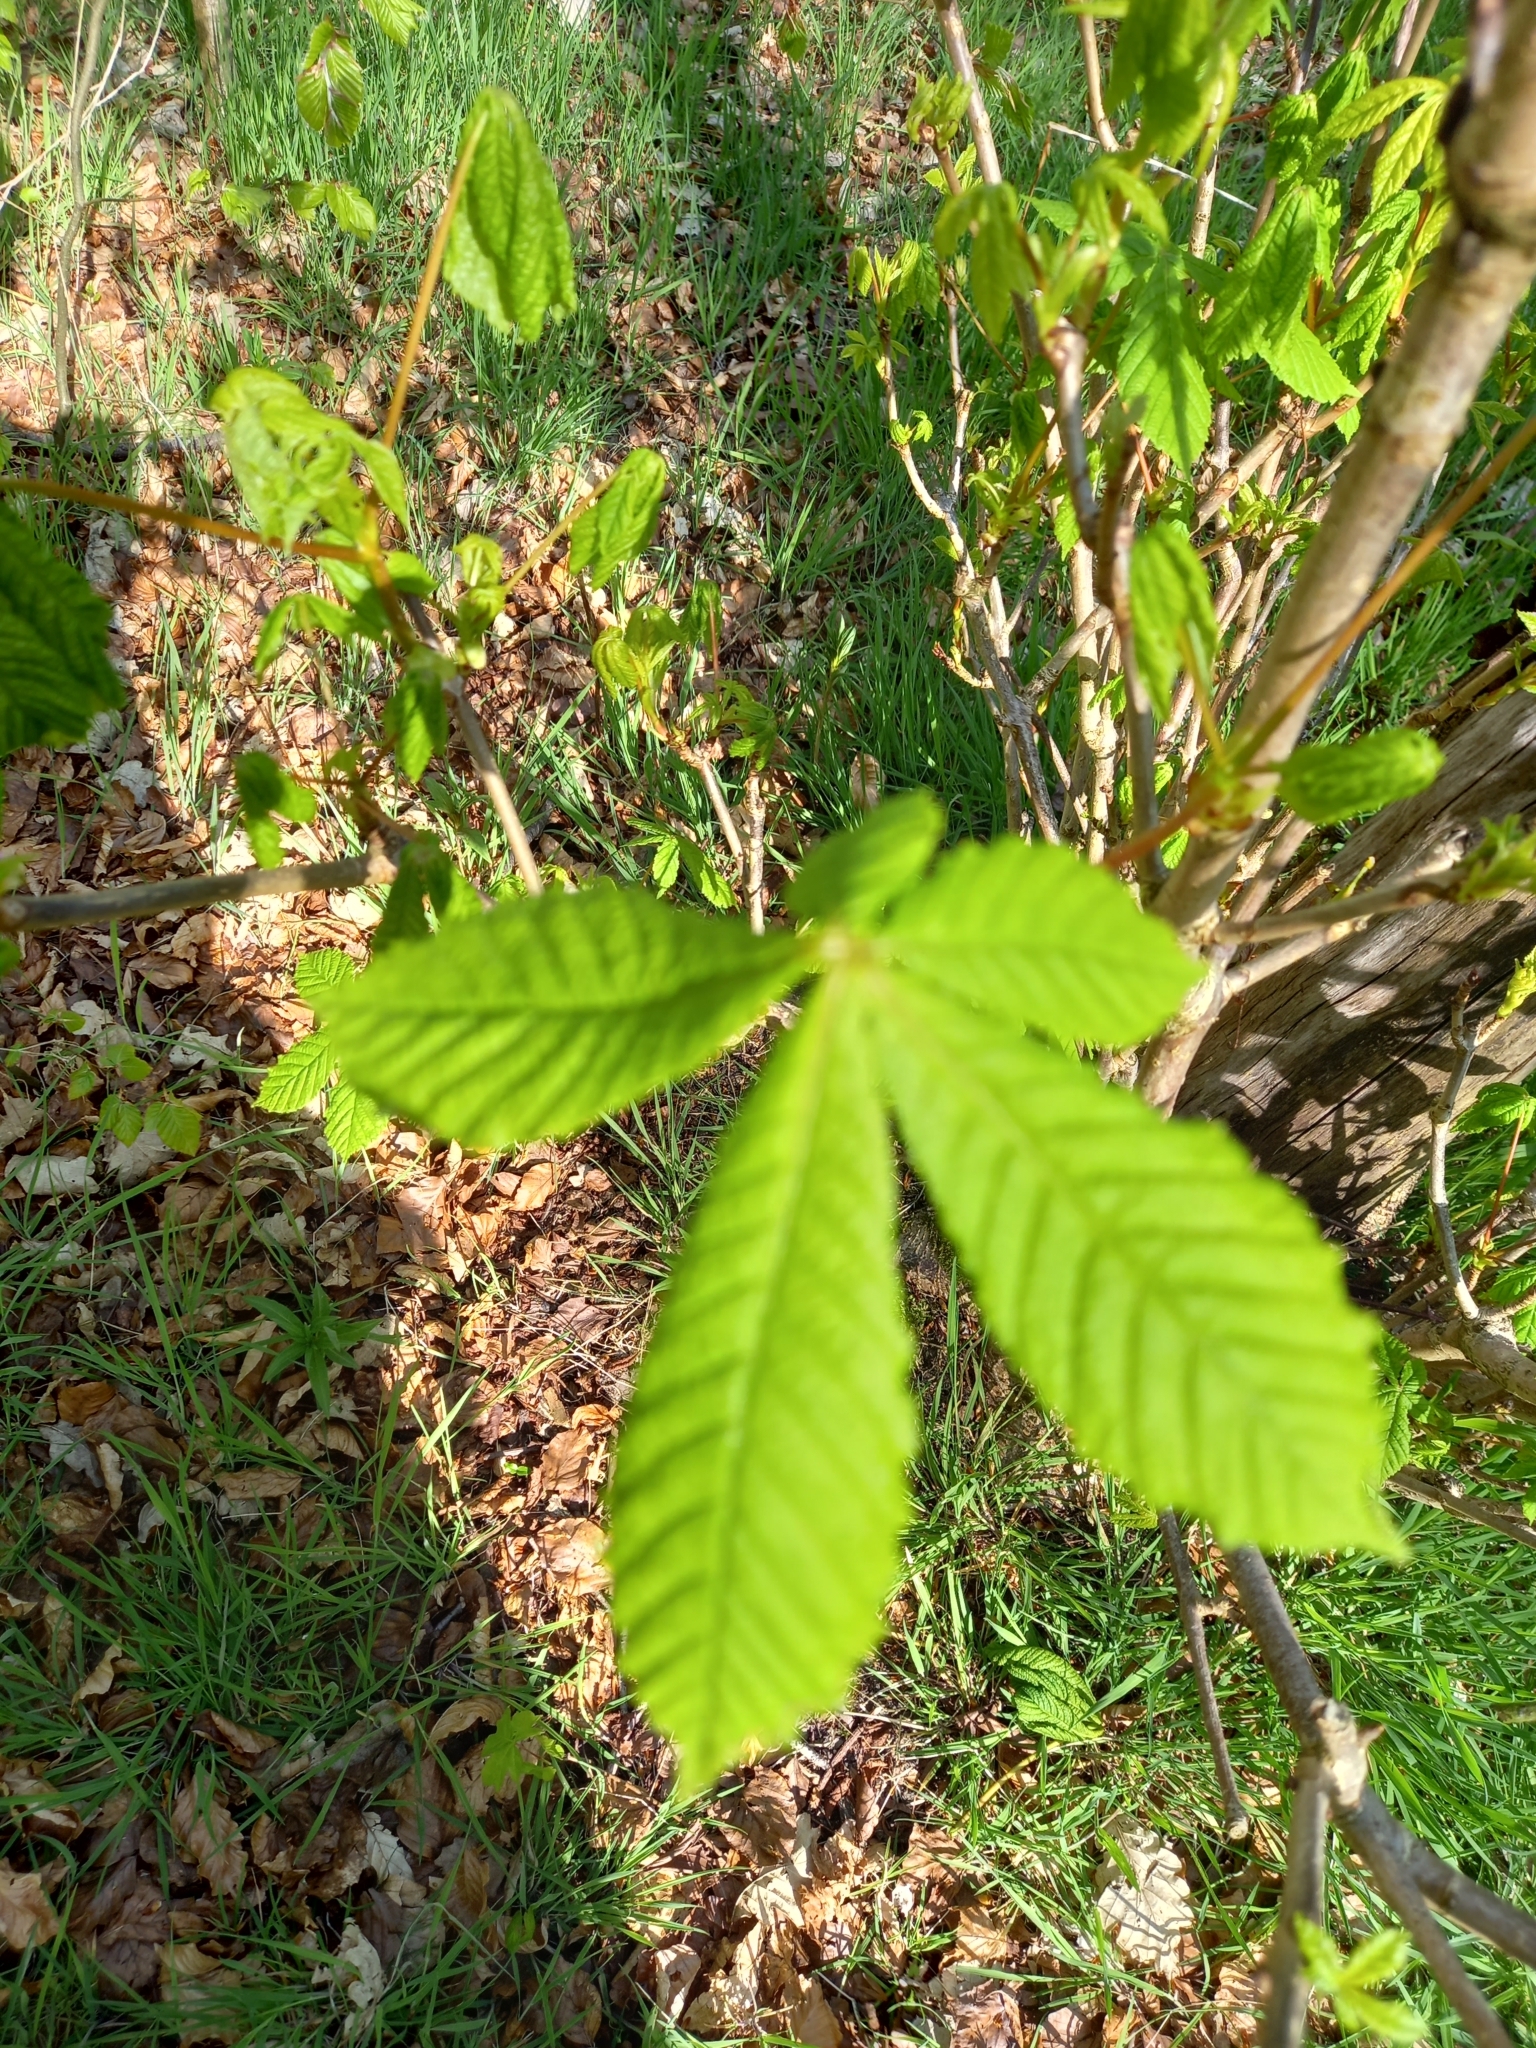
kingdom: Plantae
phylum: Tracheophyta
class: Magnoliopsida
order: Sapindales
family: Sapindaceae
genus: Aesculus
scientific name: Aesculus hippocastanum
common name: Horse-chestnut
